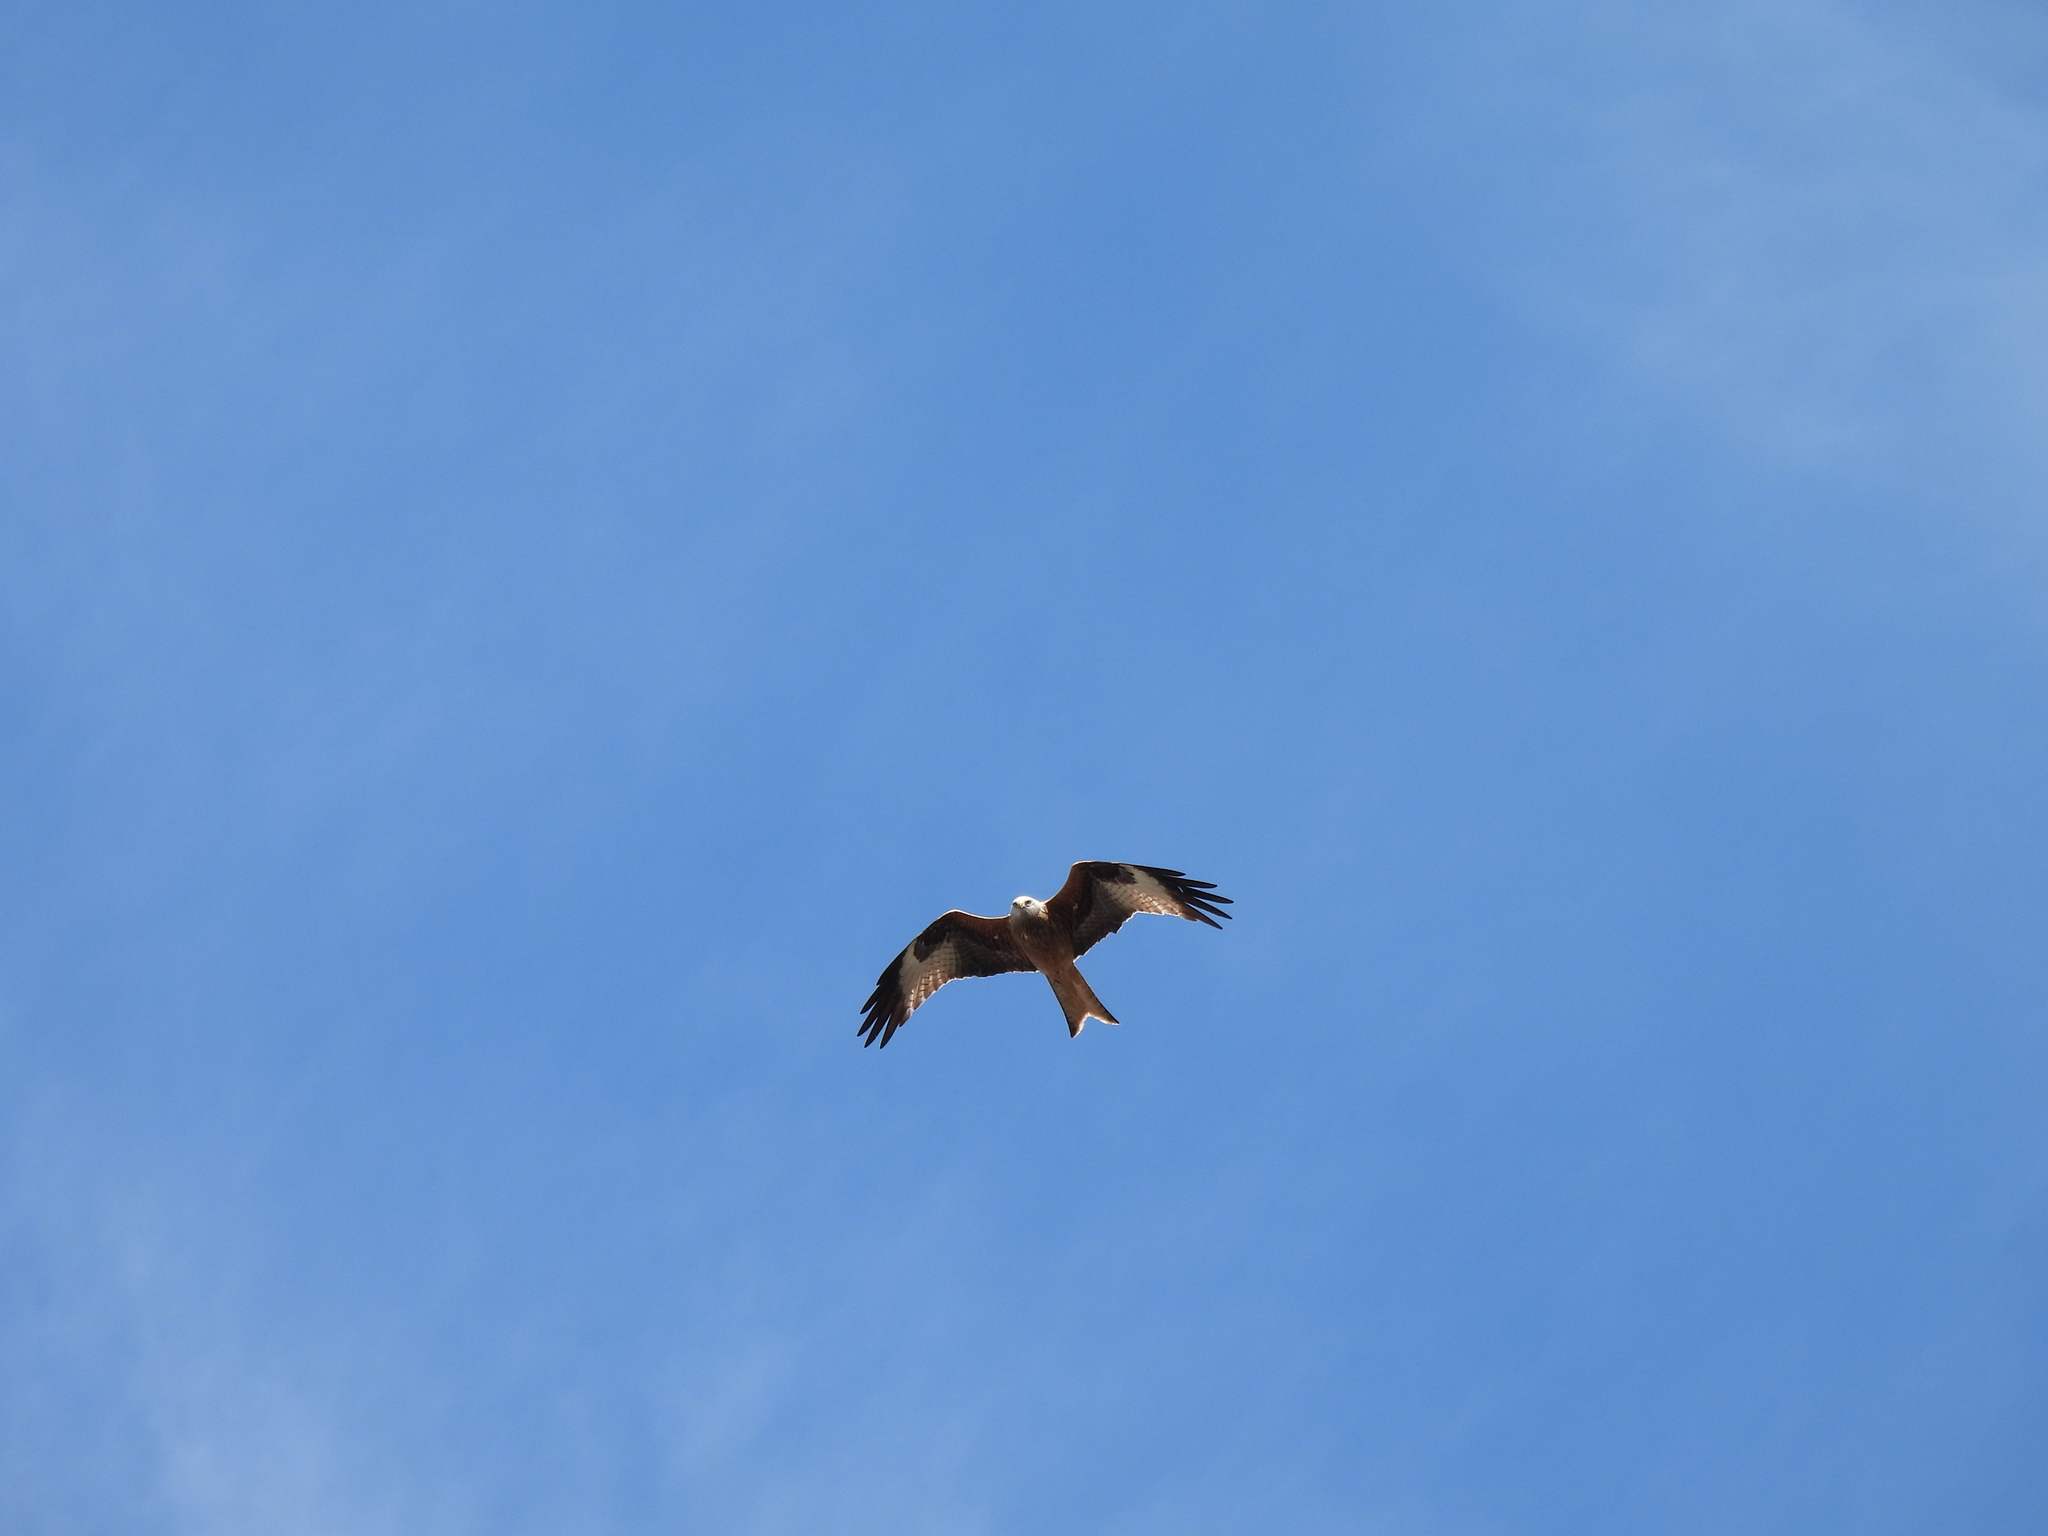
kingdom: Animalia
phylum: Chordata
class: Aves
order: Accipitriformes
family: Accipitridae
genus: Milvus
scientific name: Milvus milvus
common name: Red kite
